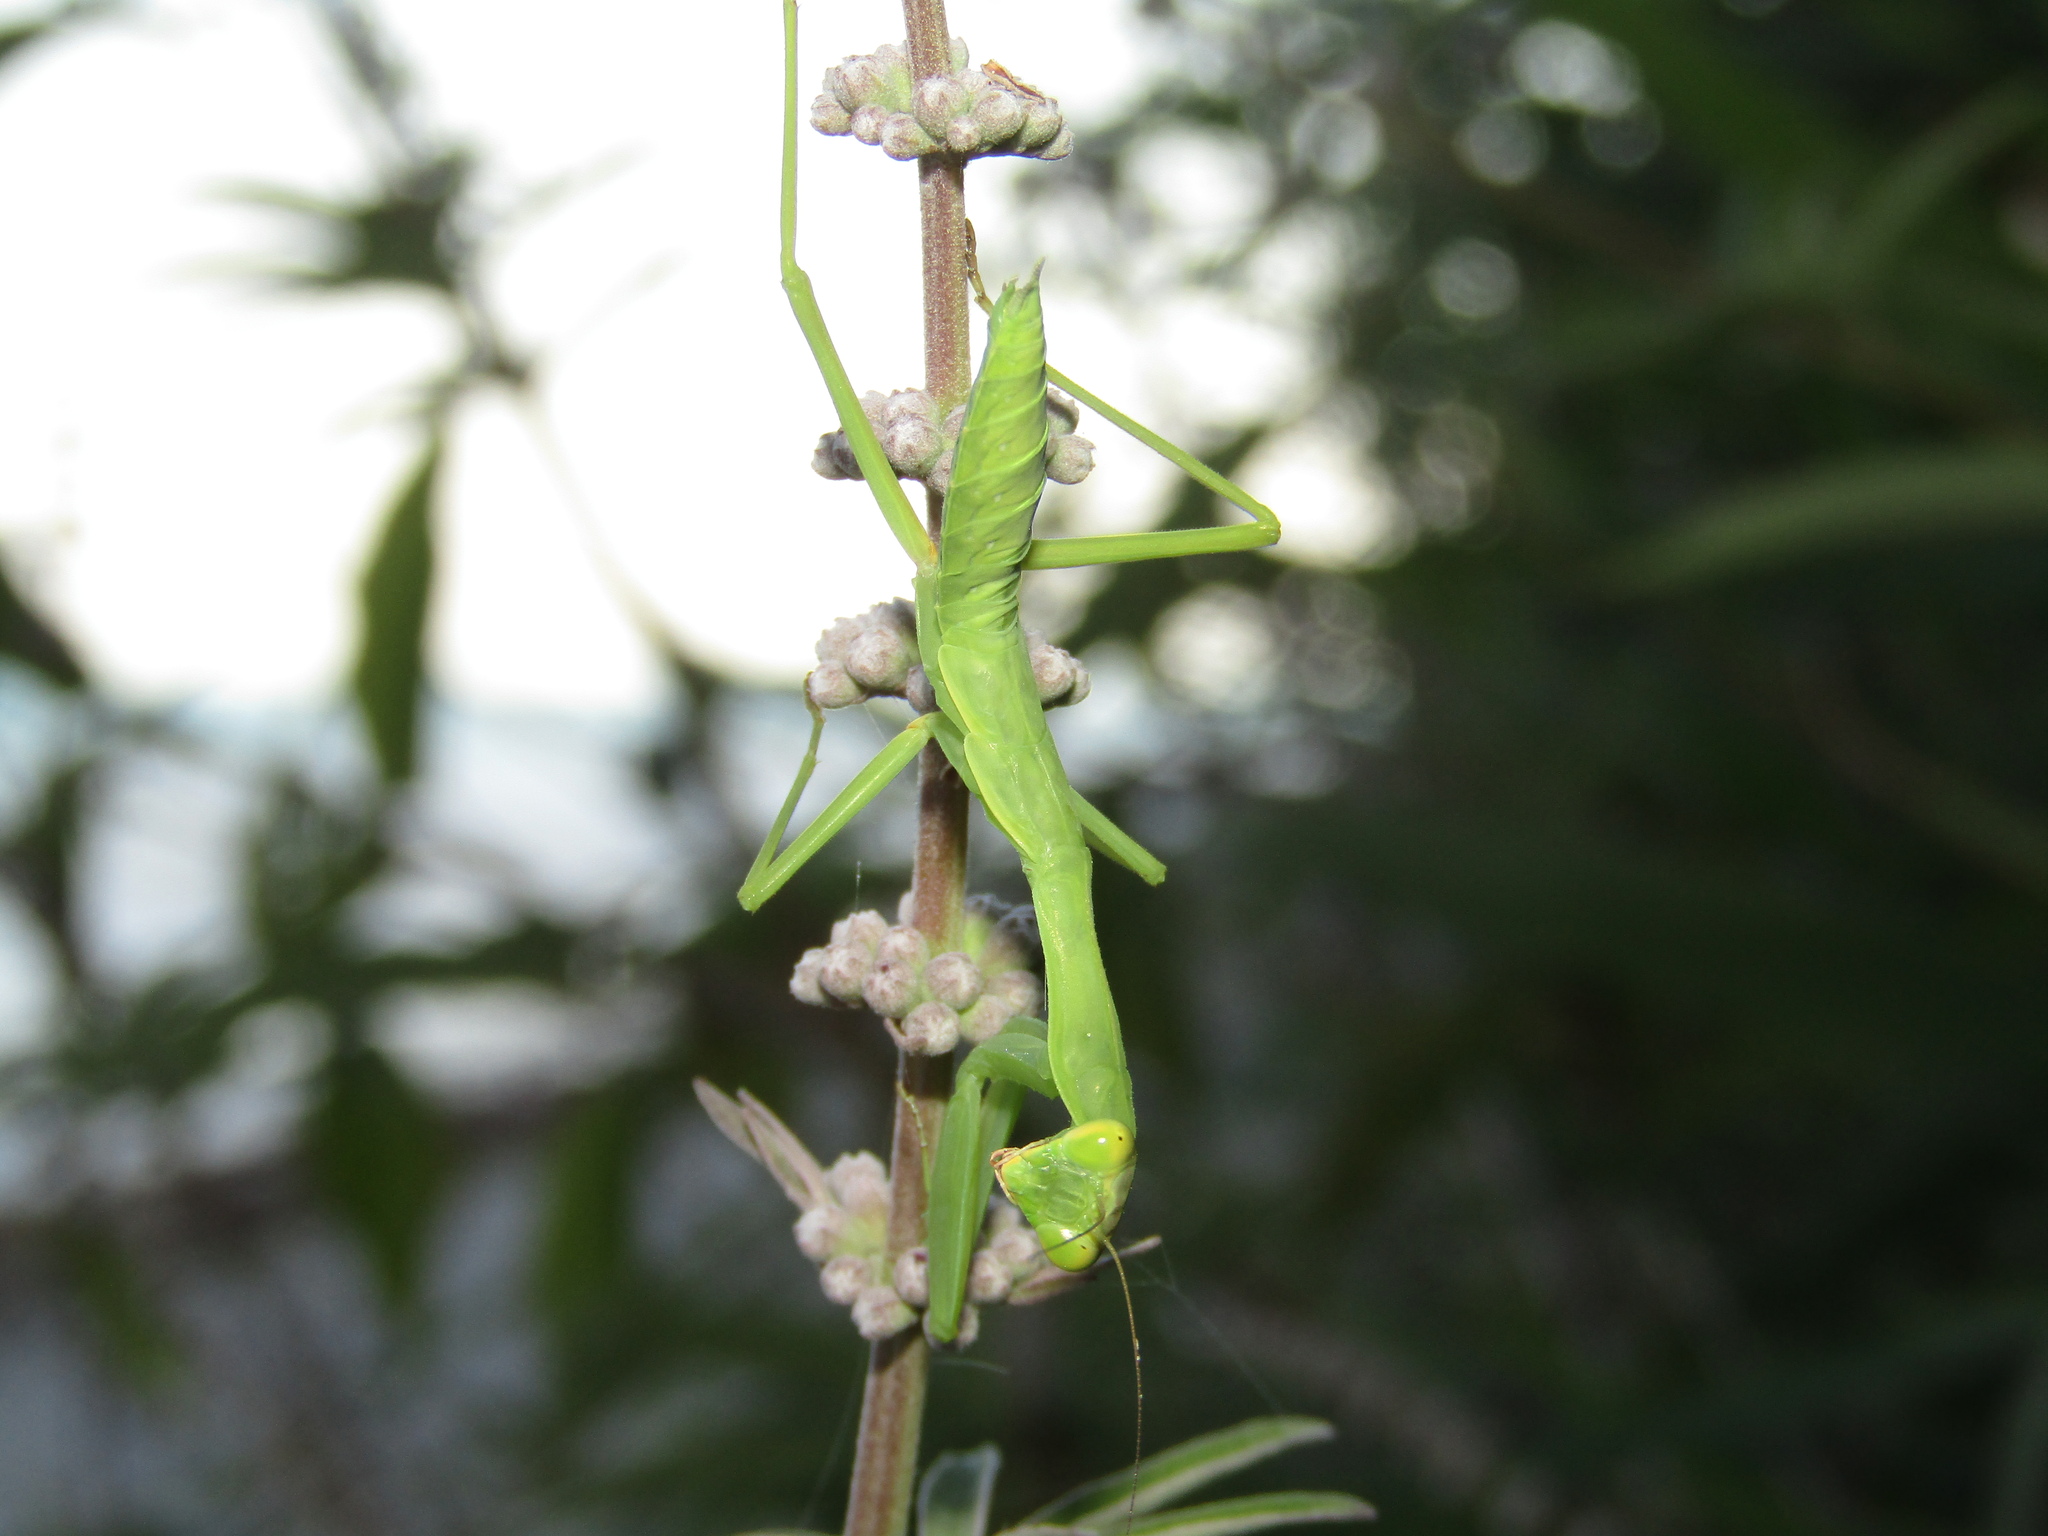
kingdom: Animalia
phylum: Arthropoda
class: Insecta
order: Mantodea
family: Mantidae
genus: Hierodula
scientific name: Hierodula transcaucasica
